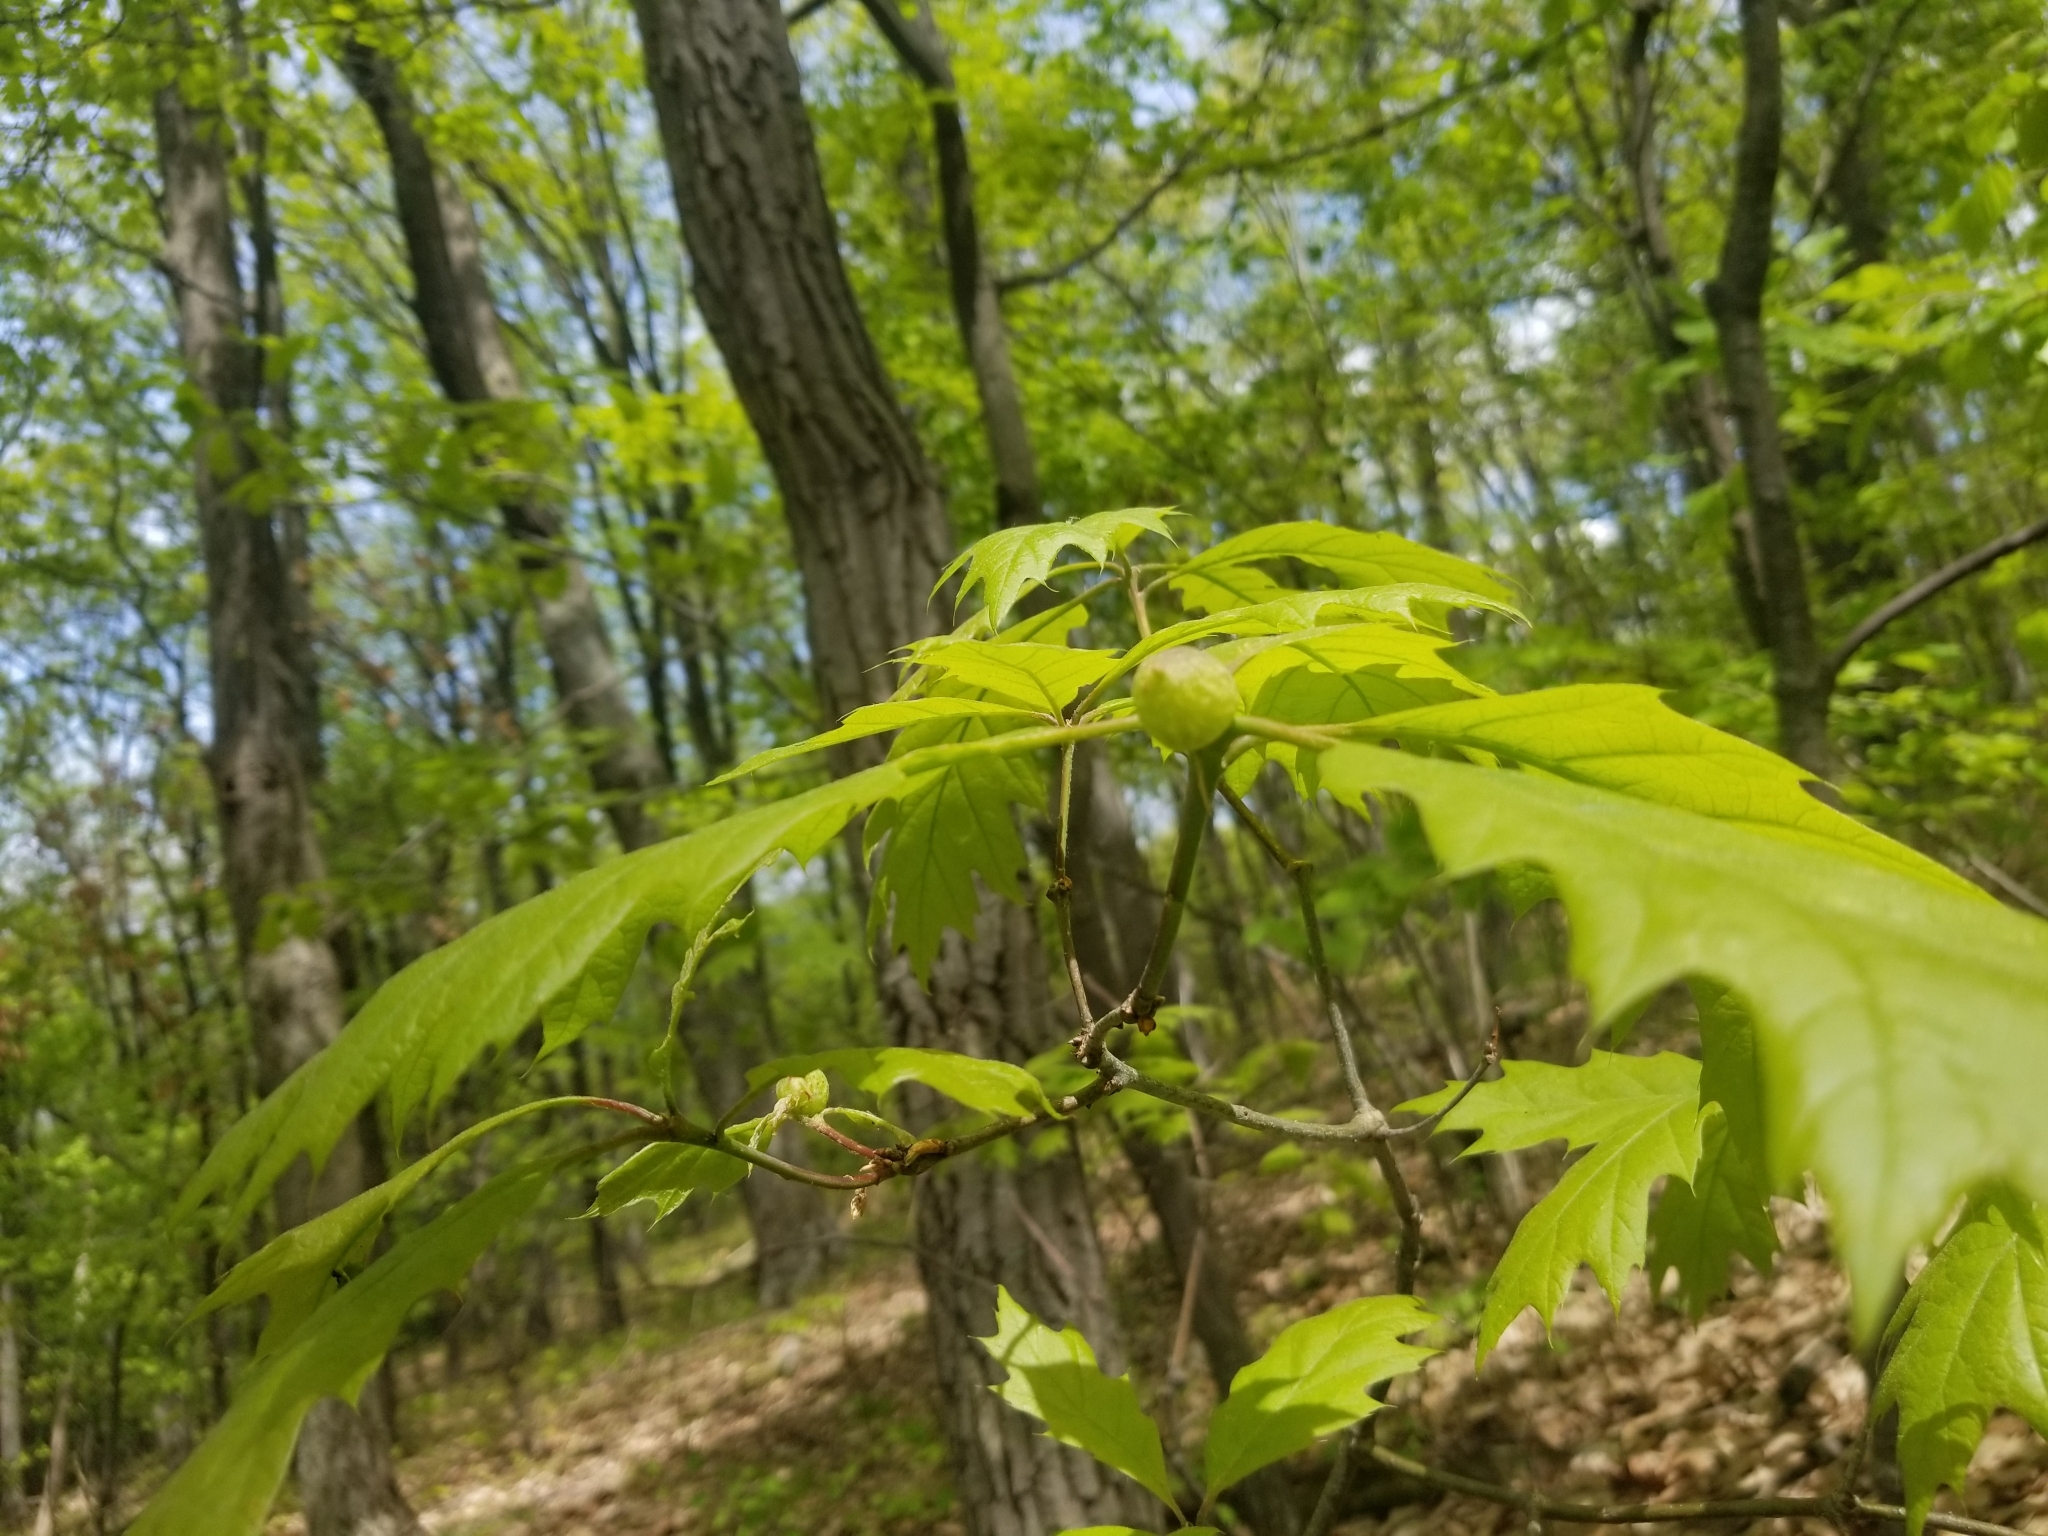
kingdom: Animalia
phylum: Arthropoda
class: Insecta
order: Hymenoptera
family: Cynipidae
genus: Dryocosmus
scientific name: Dryocosmus quercuspalustris
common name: Succulent oak gall wasp
